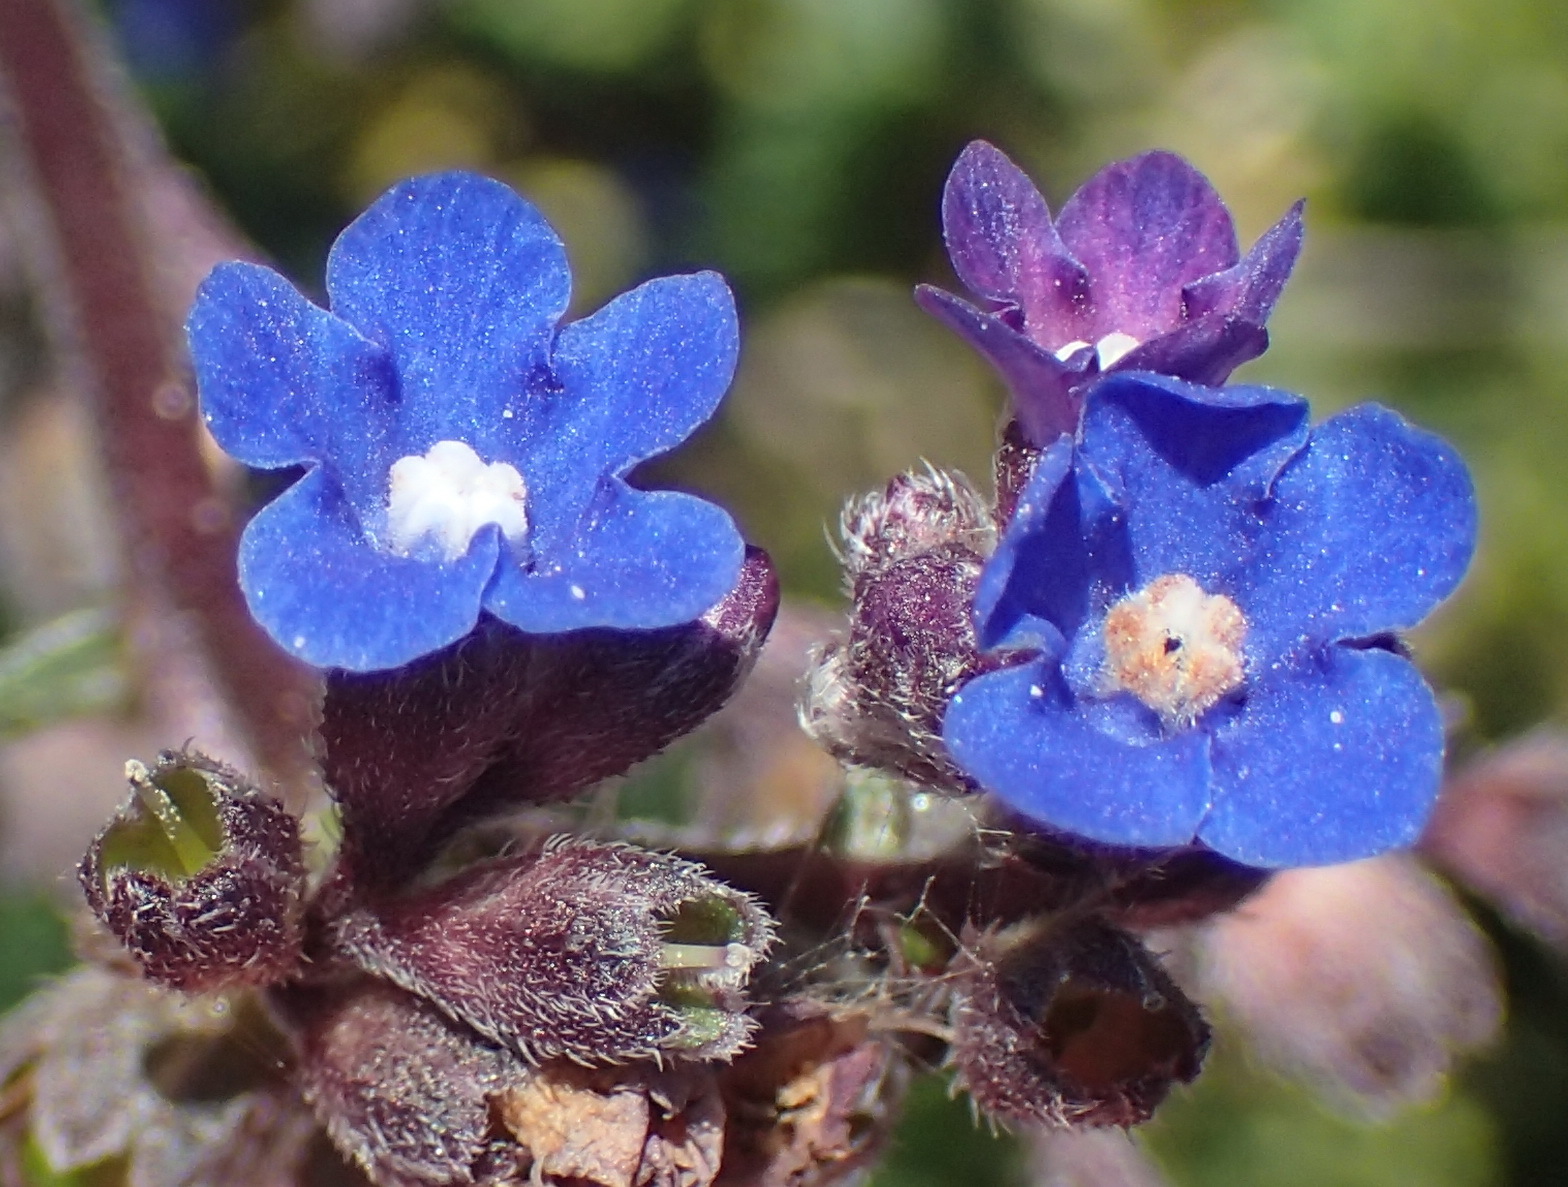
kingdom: Plantae
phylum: Tracheophyta
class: Magnoliopsida
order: Boraginales
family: Boraginaceae
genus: Anchusa
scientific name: Anchusa capensis
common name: Cape bugloss
